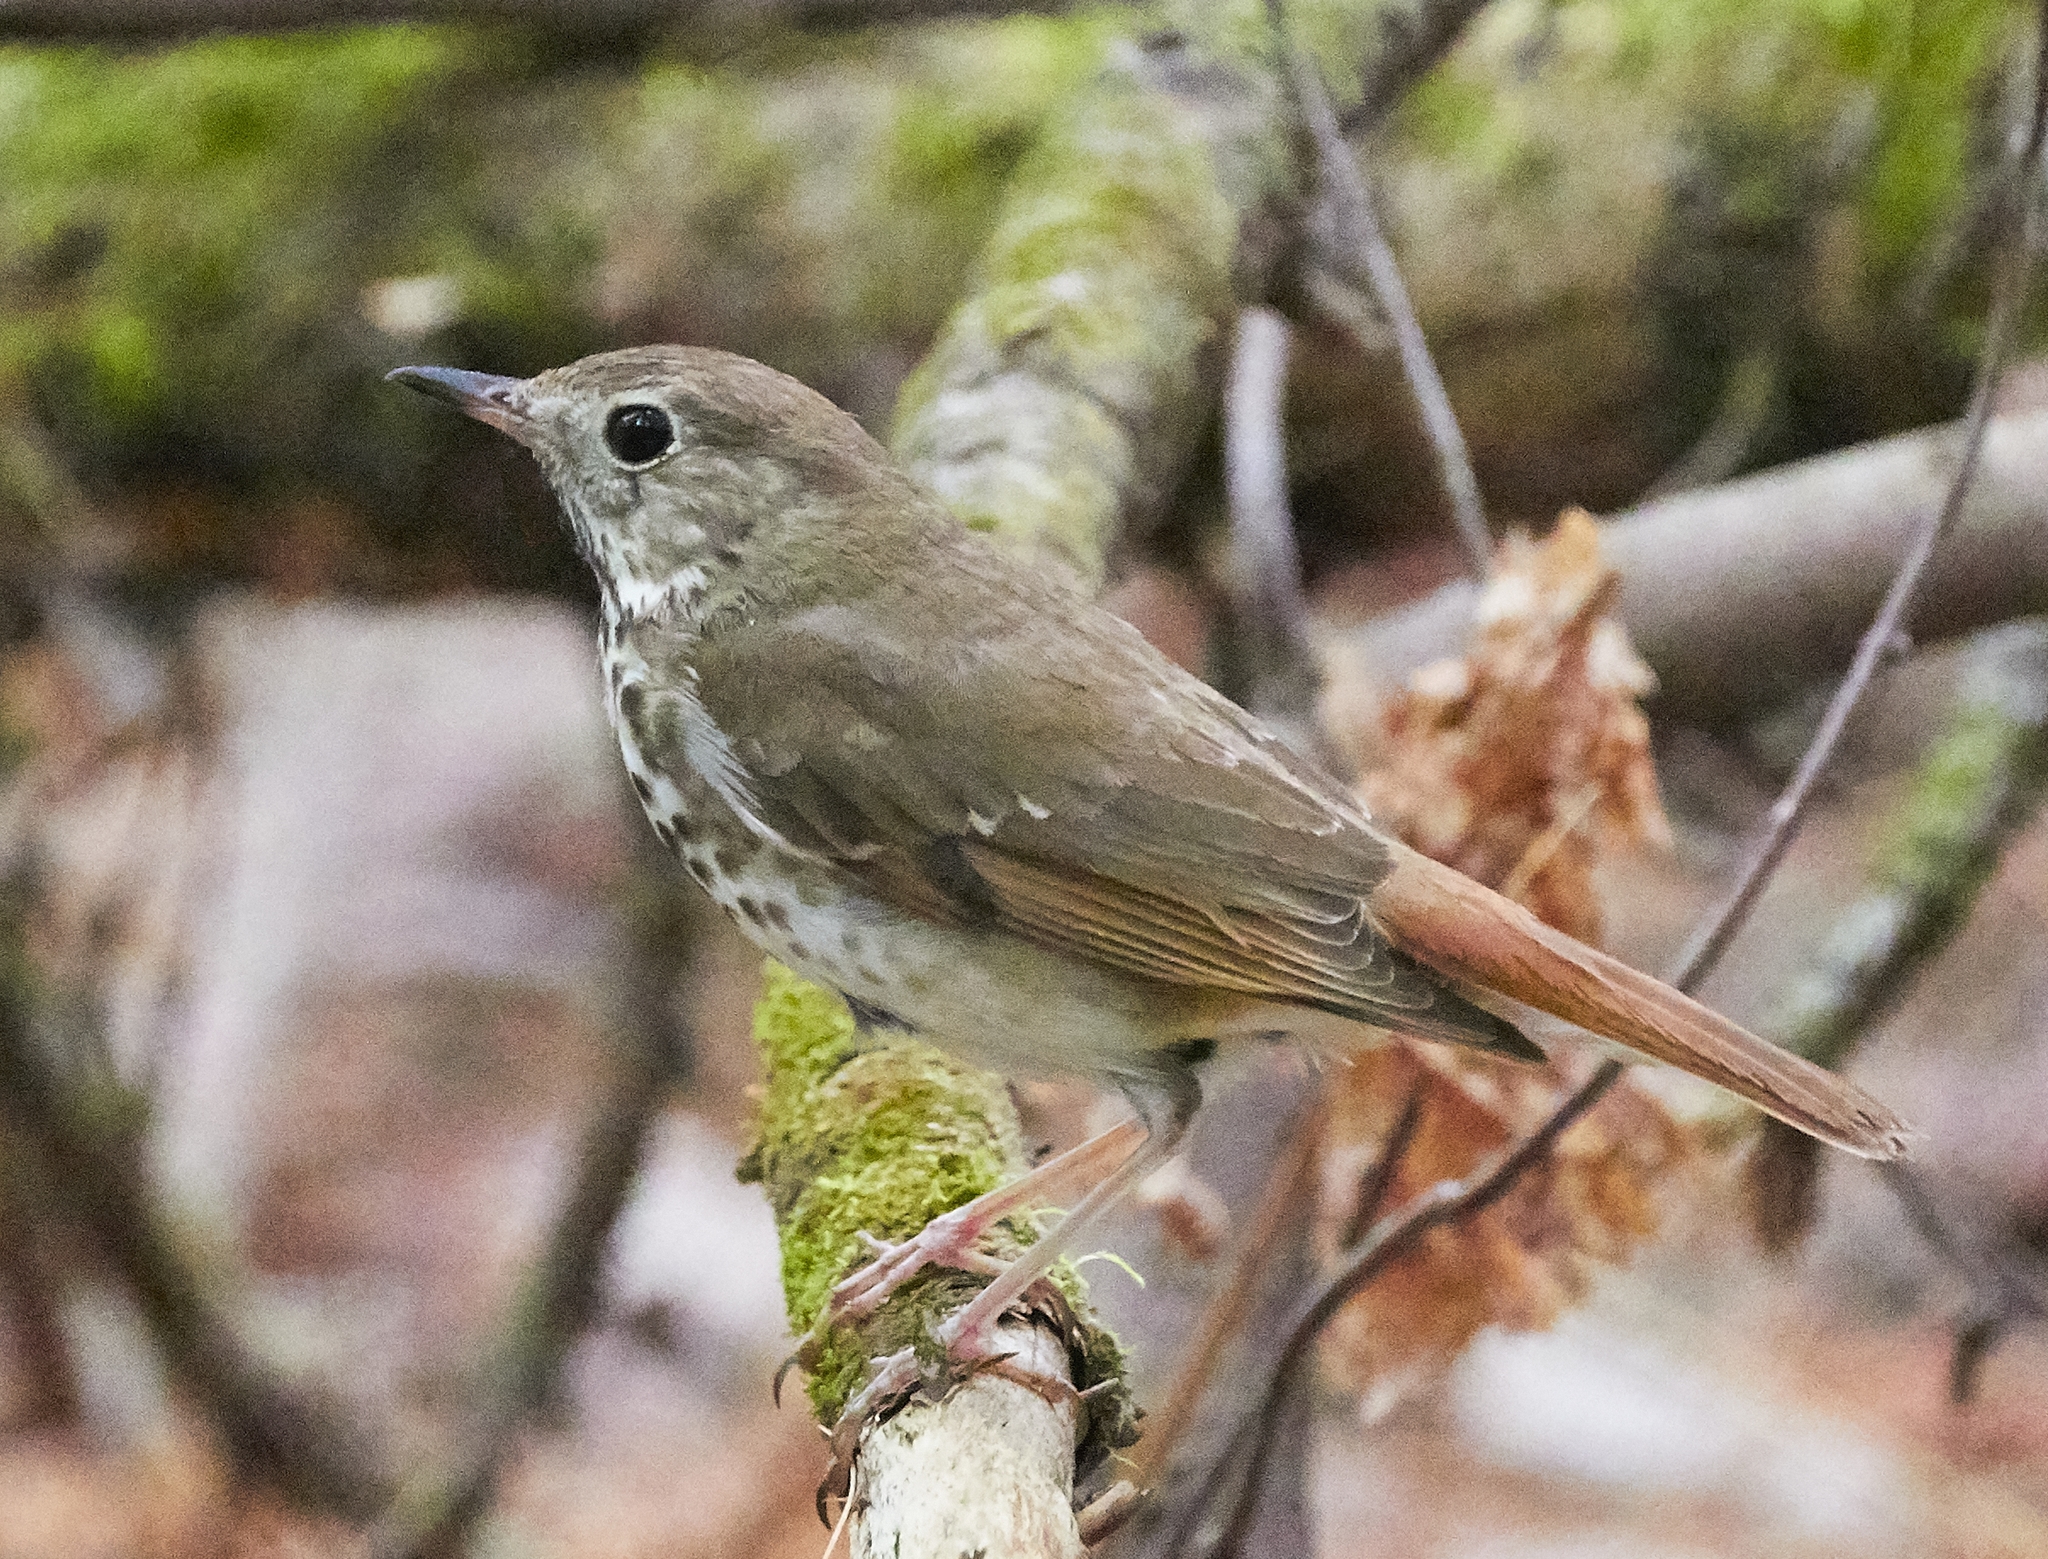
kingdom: Animalia
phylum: Chordata
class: Aves
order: Passeriformes
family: Turdidae
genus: Catharus
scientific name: Catharus guttatus
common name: Hermit thrush
